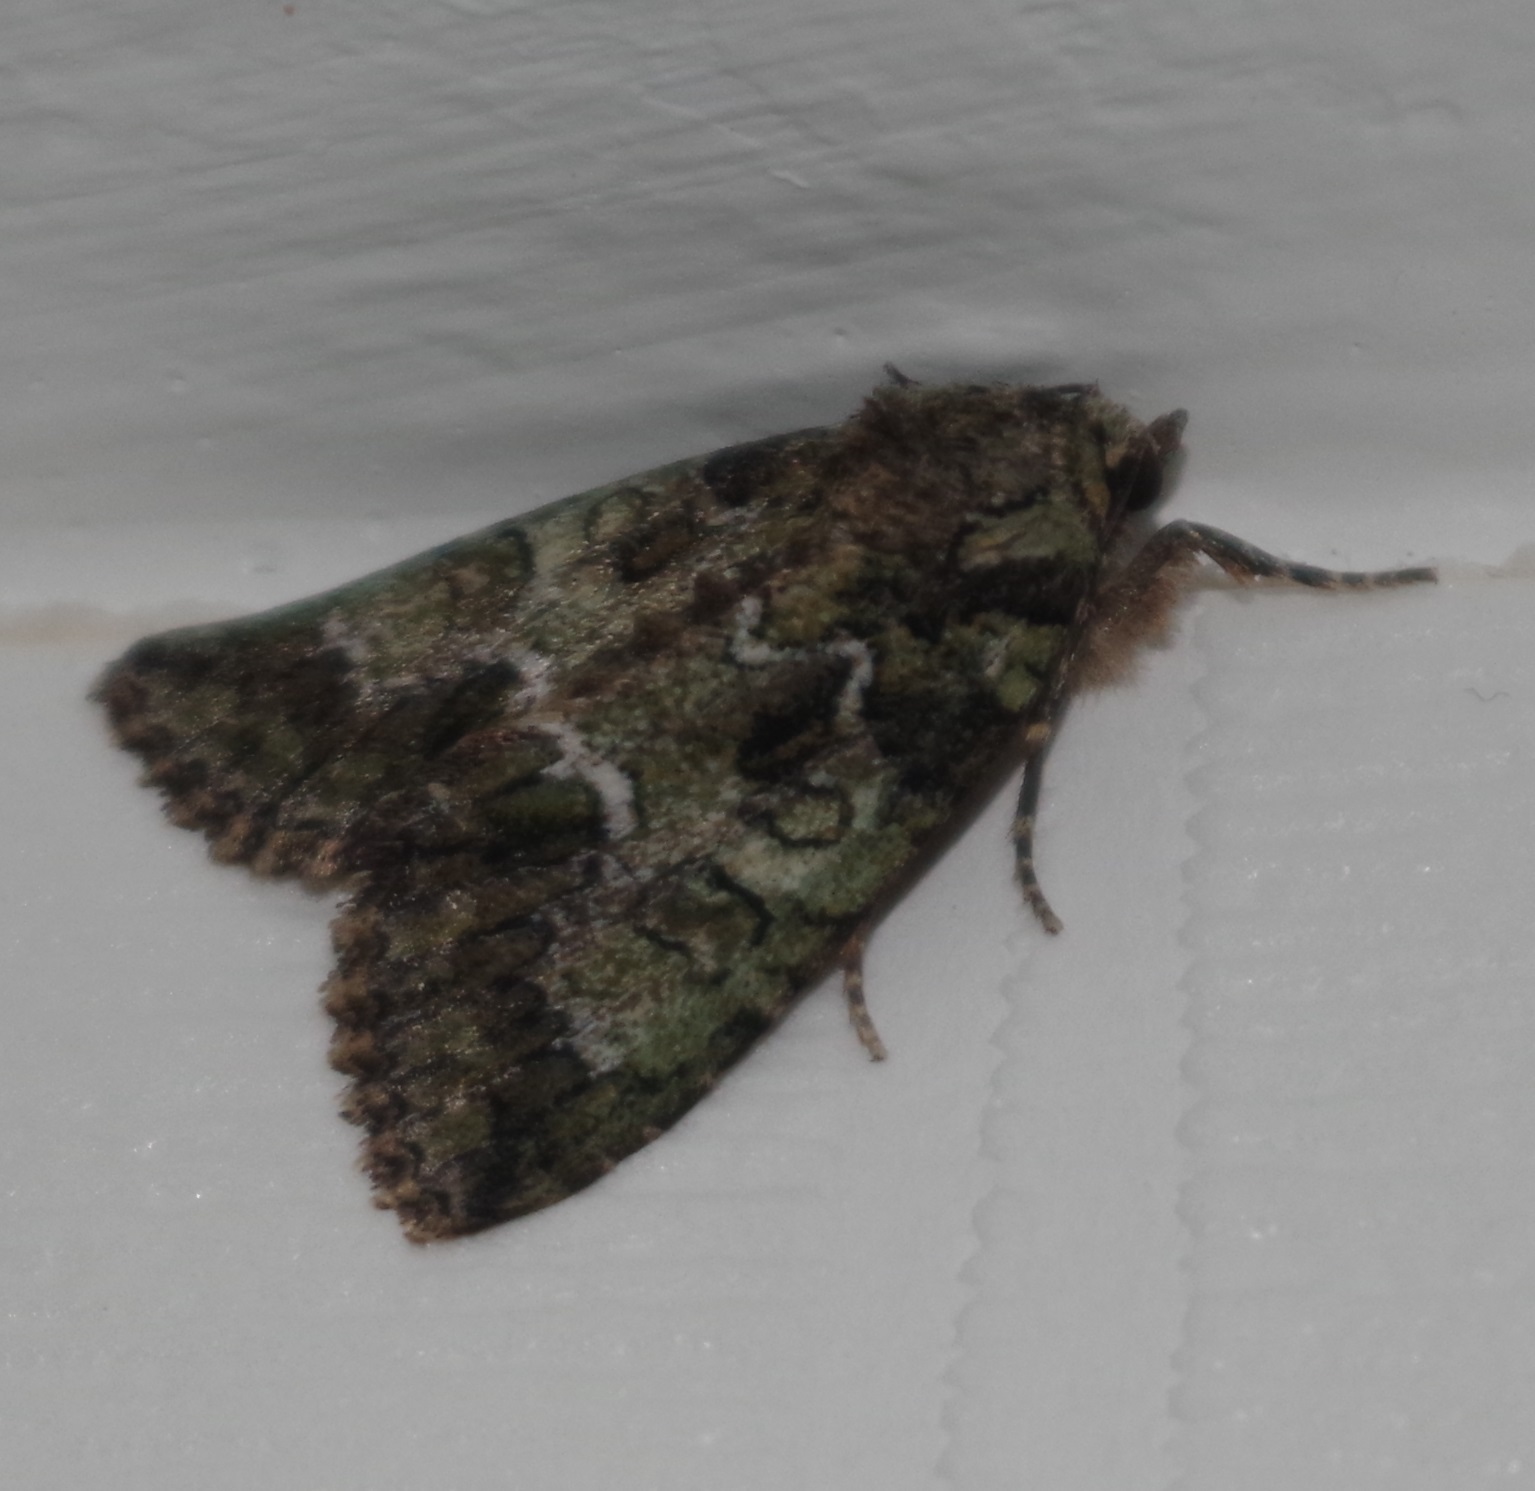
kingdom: Animalia
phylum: Arthropoda
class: Insecta
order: Lepidoptera
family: Noctuidae
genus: Polyphaenis
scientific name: Polyphaenis sericata
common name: Guernsey underwing
